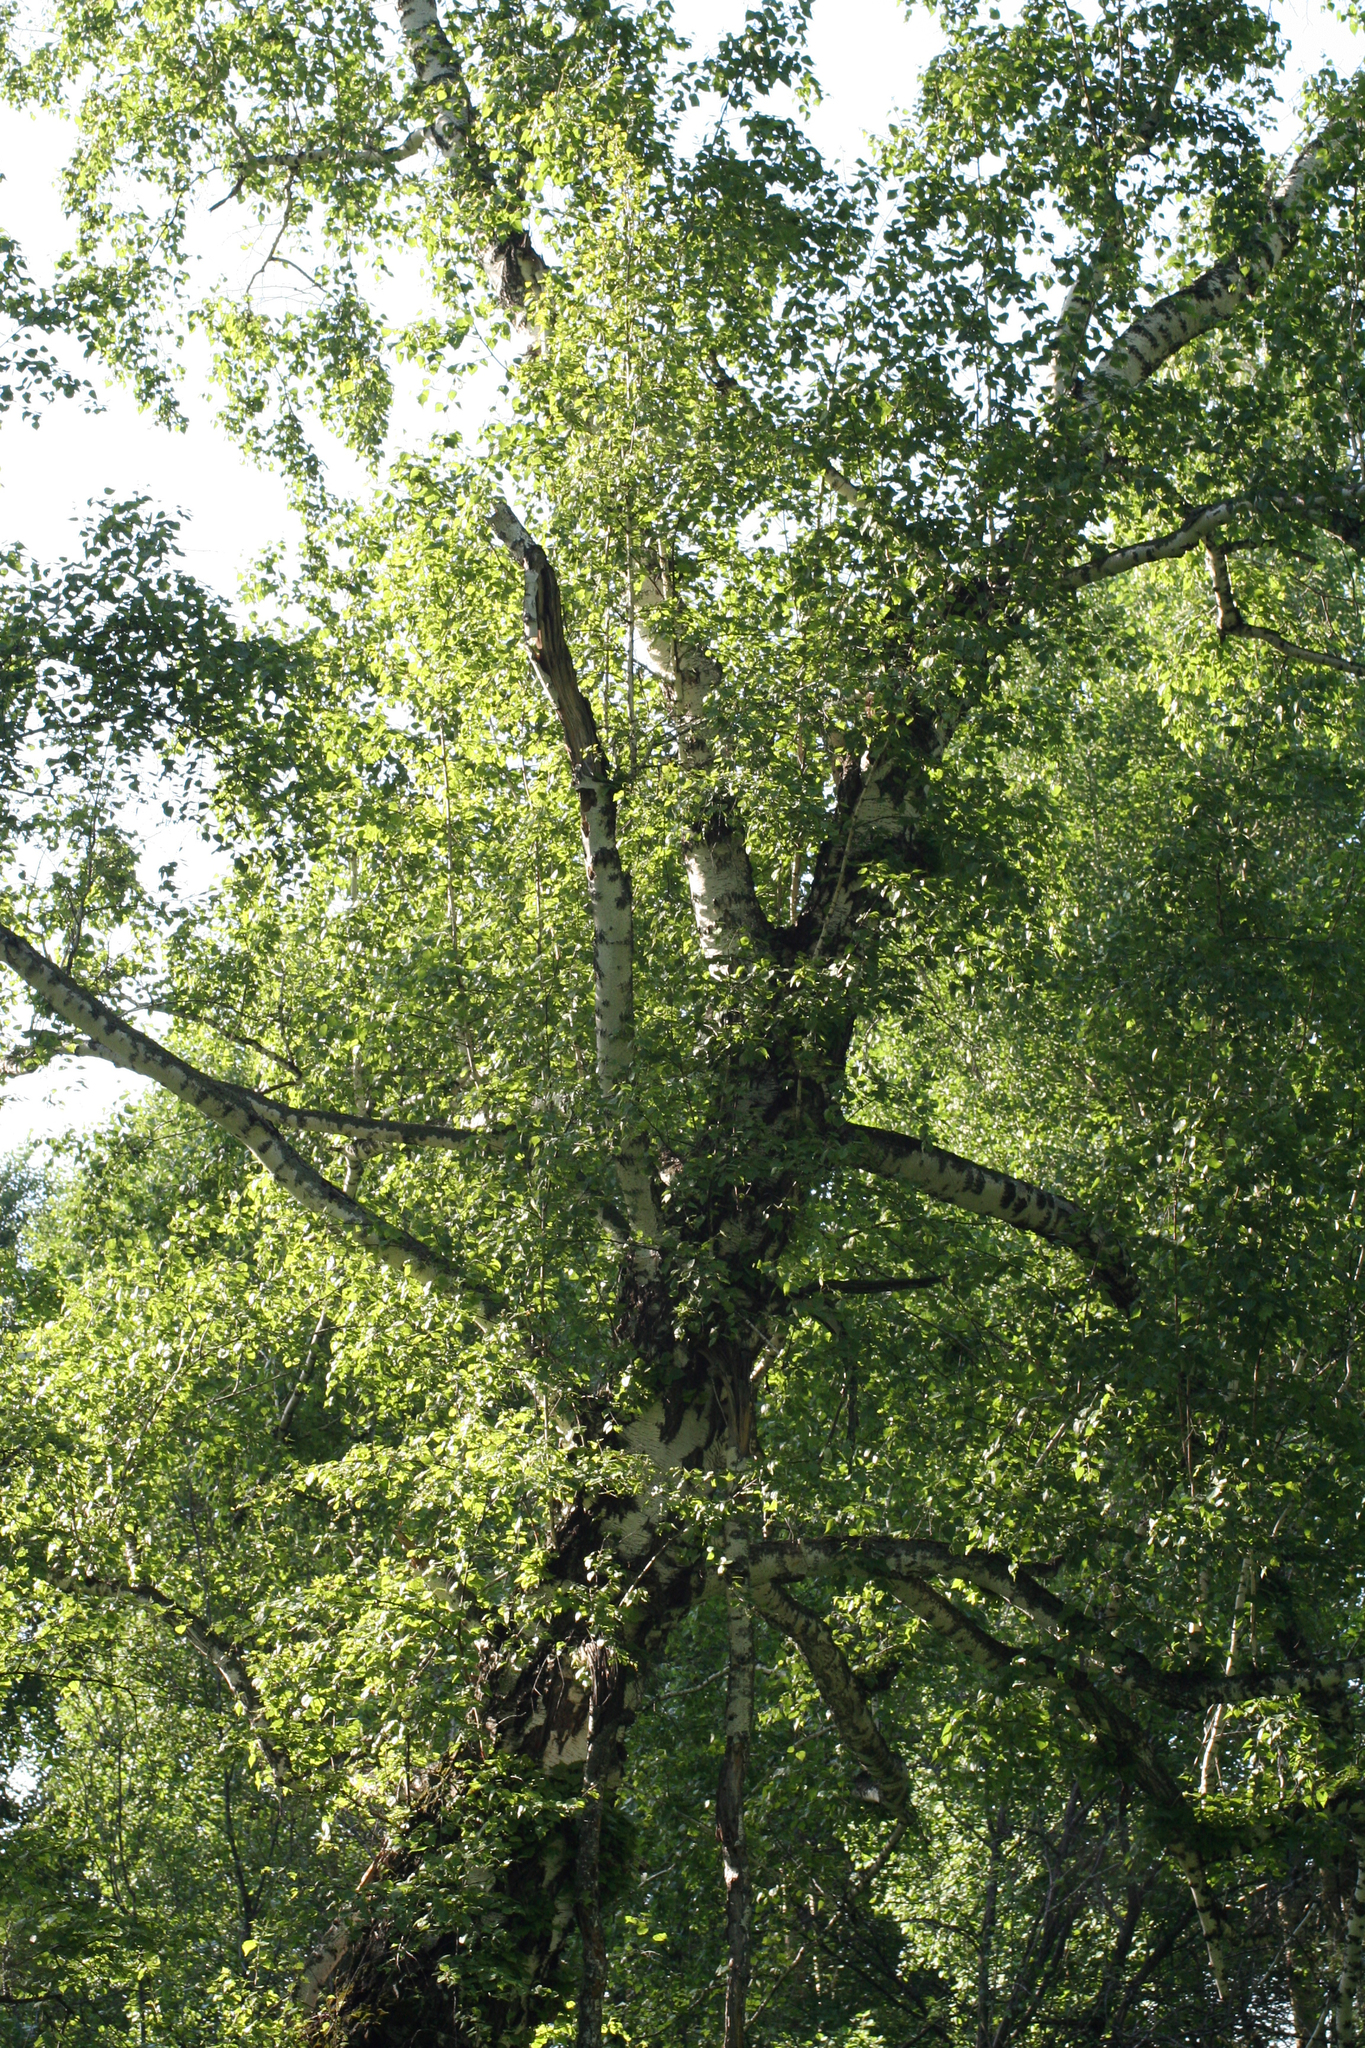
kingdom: Plantae
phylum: Tracheophyta
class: Magnoliopsida
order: Fagales
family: Betulaceae
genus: Betula
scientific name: Betula pendula
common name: Silver birch
